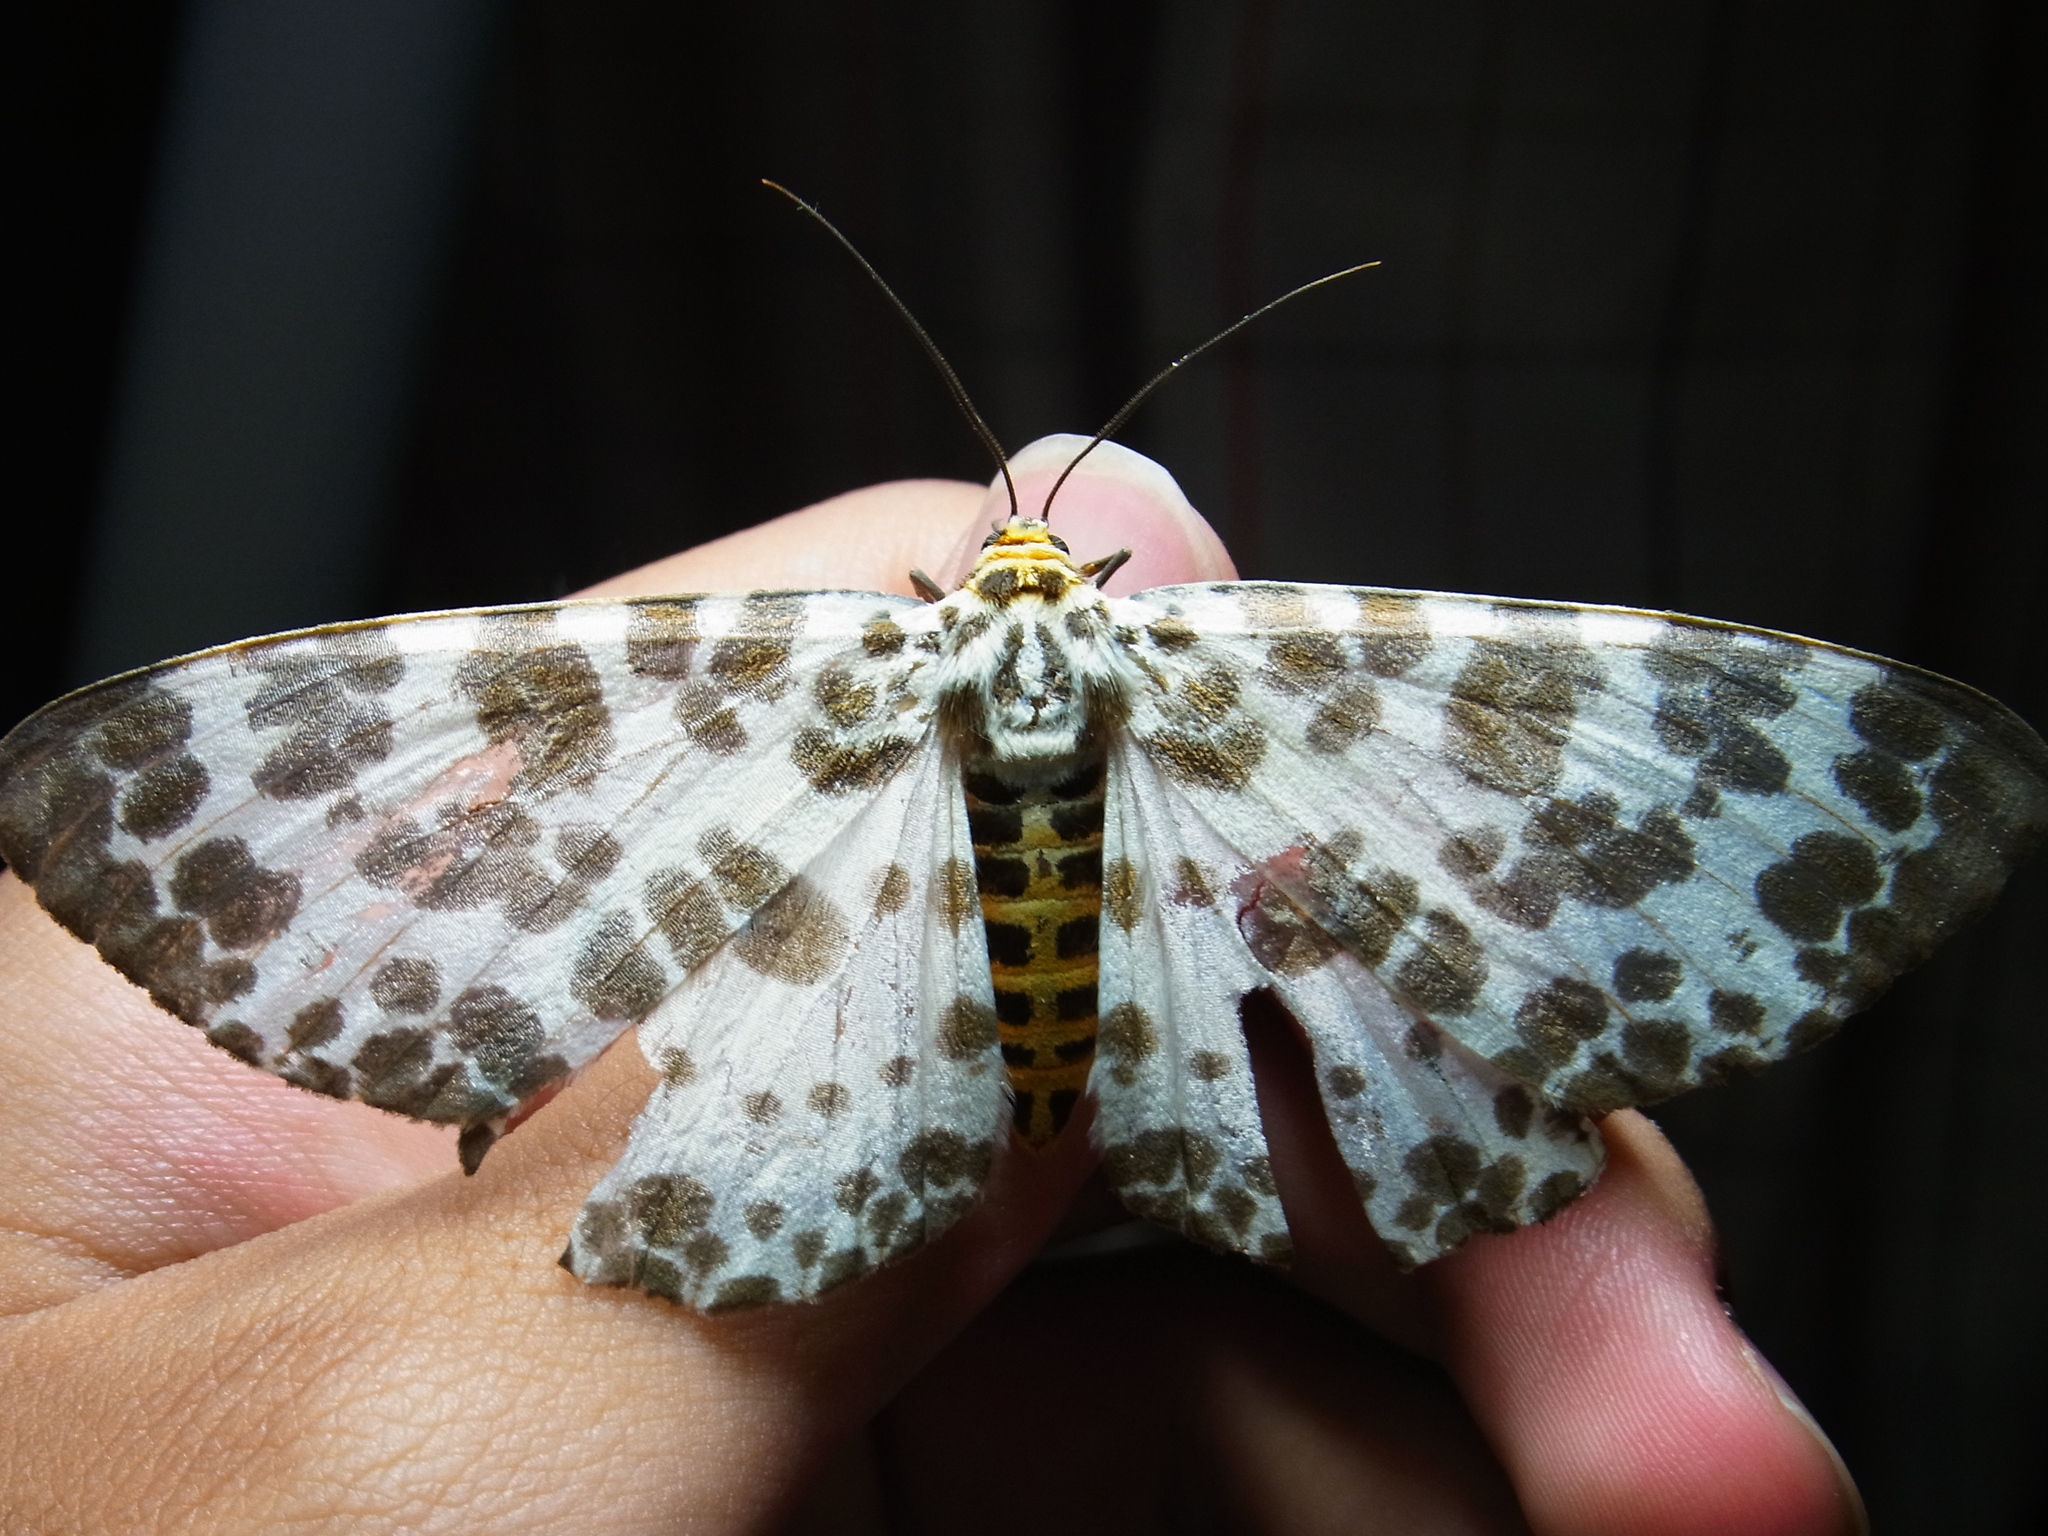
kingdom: Animalia
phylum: Arthropoda
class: Insecta
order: Lepidoptera
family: Geometridae
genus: Parapercnia
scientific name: Parapercnia giraffata
